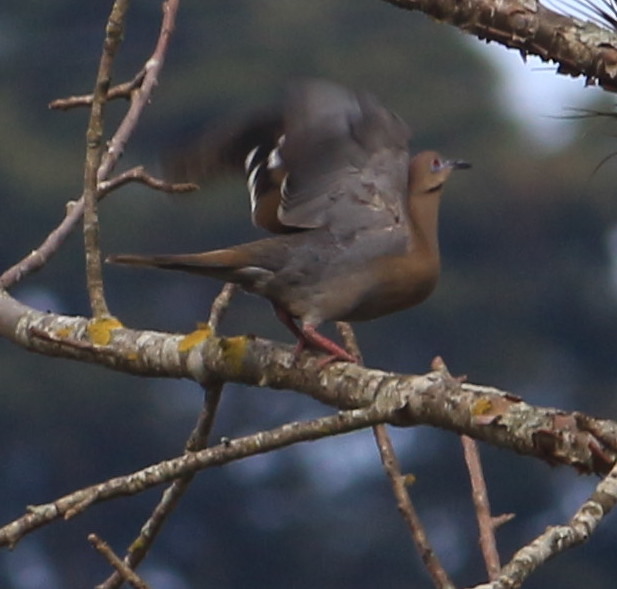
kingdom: Animalia
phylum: Chordata
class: Aves
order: Columbiformes
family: Columbidae
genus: Zenaida
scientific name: Zenaida asiatica
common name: White-winged dove
